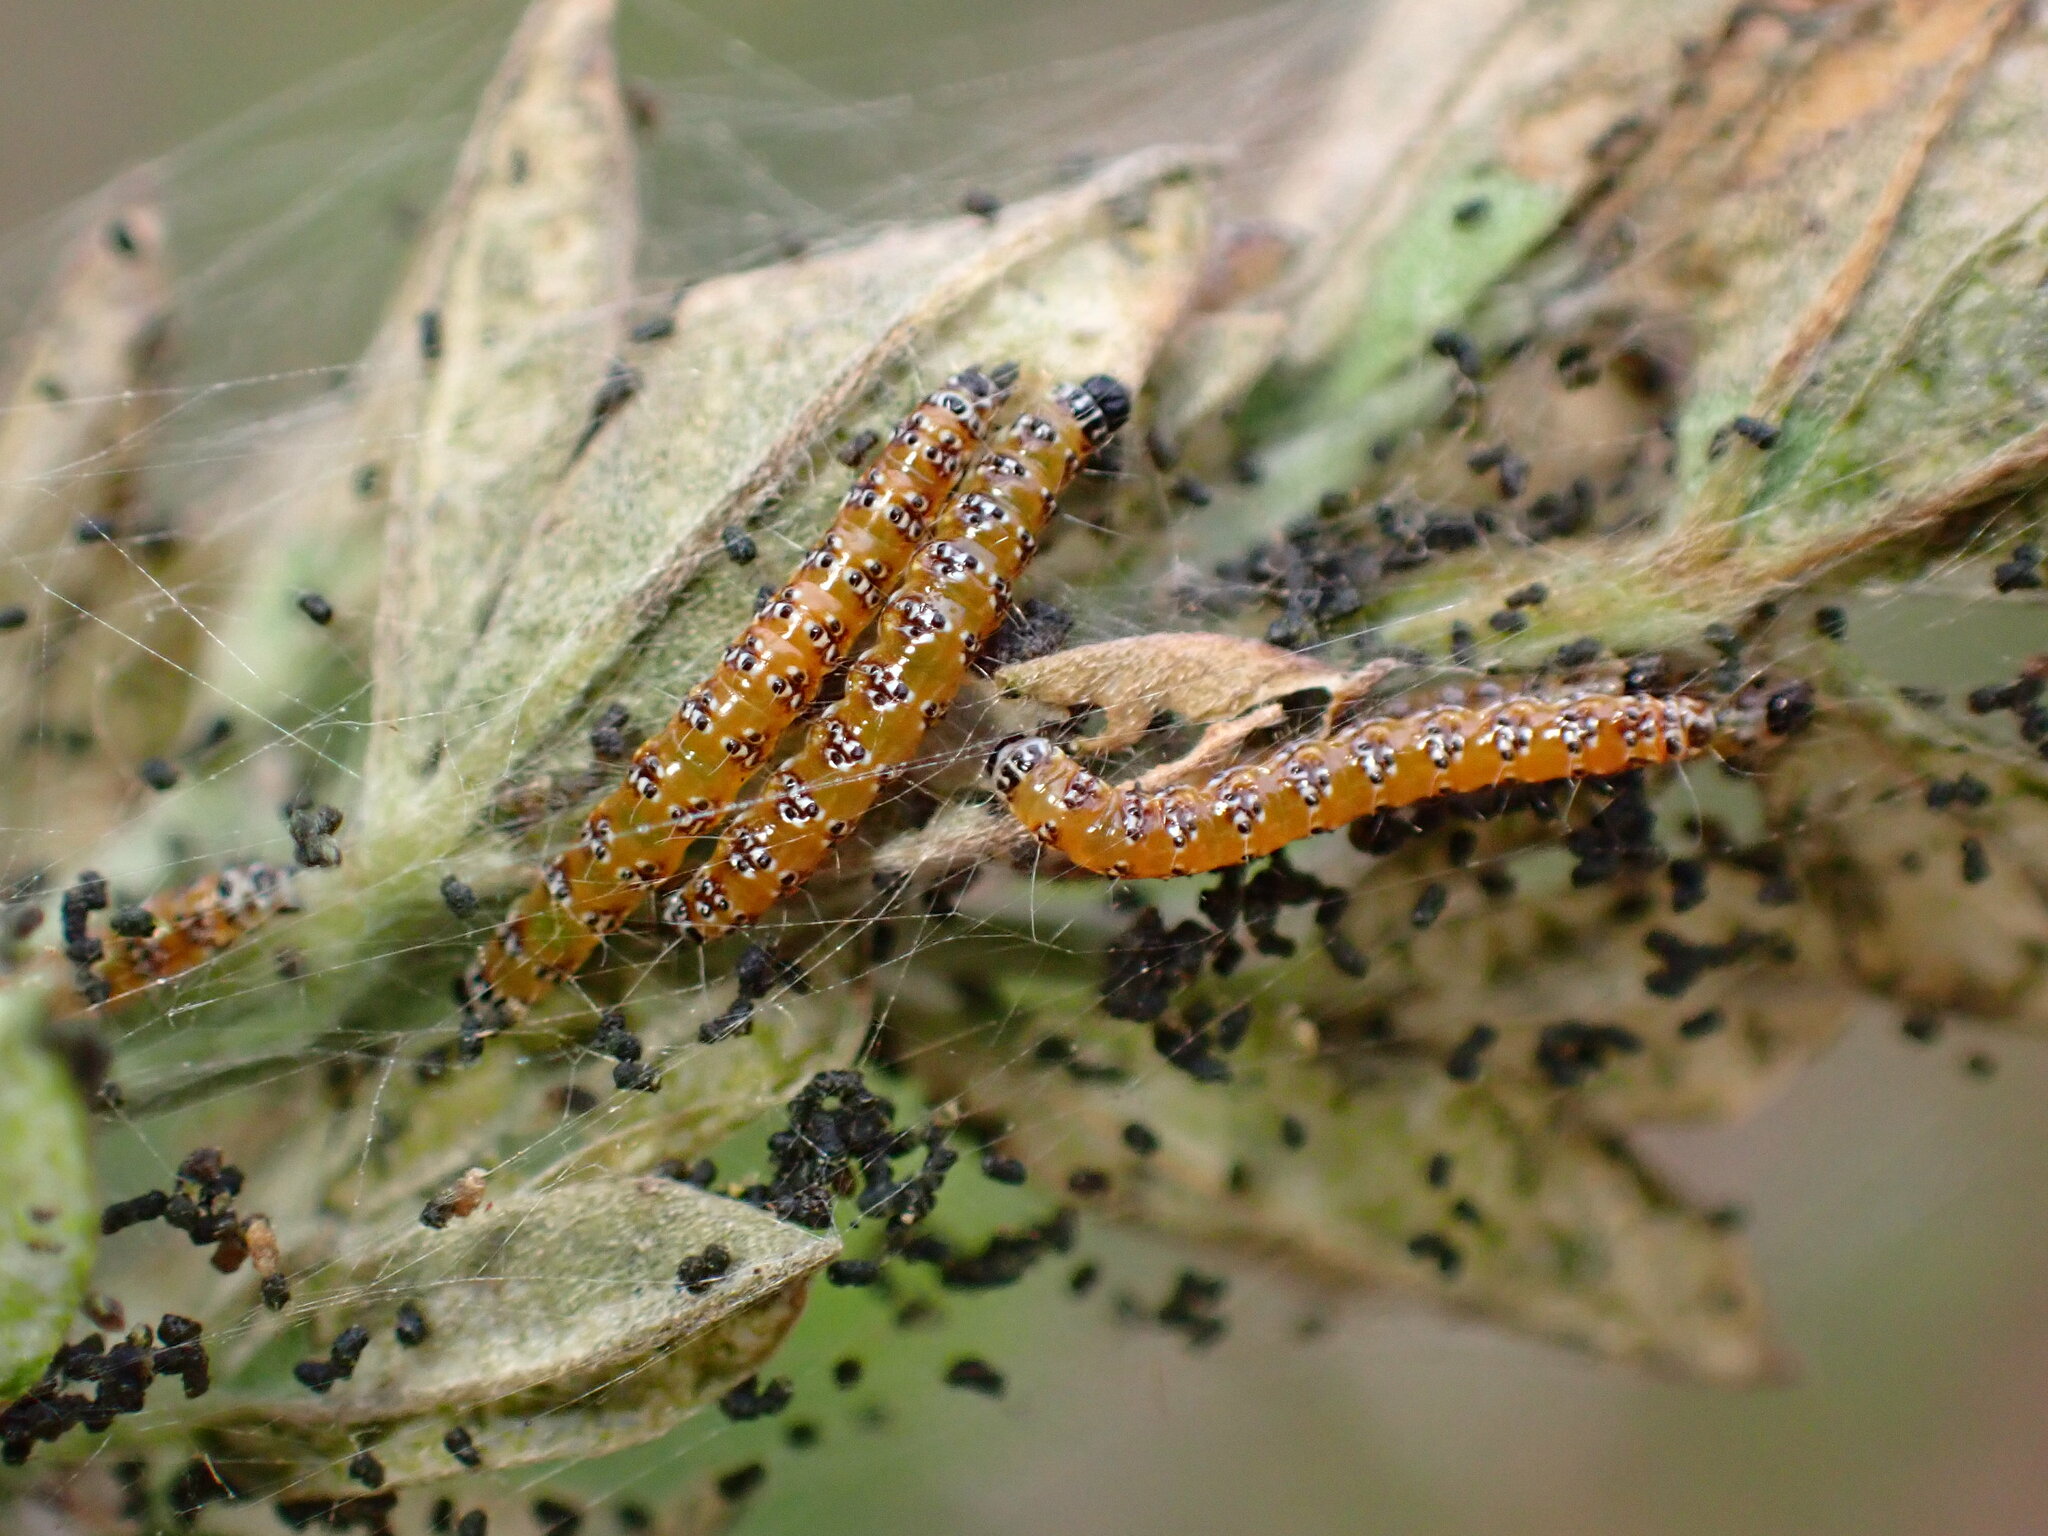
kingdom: Animalia
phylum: Arthropoda
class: Insecta
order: Lepidoptera
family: Crambidae
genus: Uresiphita
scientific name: Uresiphita reversalis
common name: Genista broom moth
